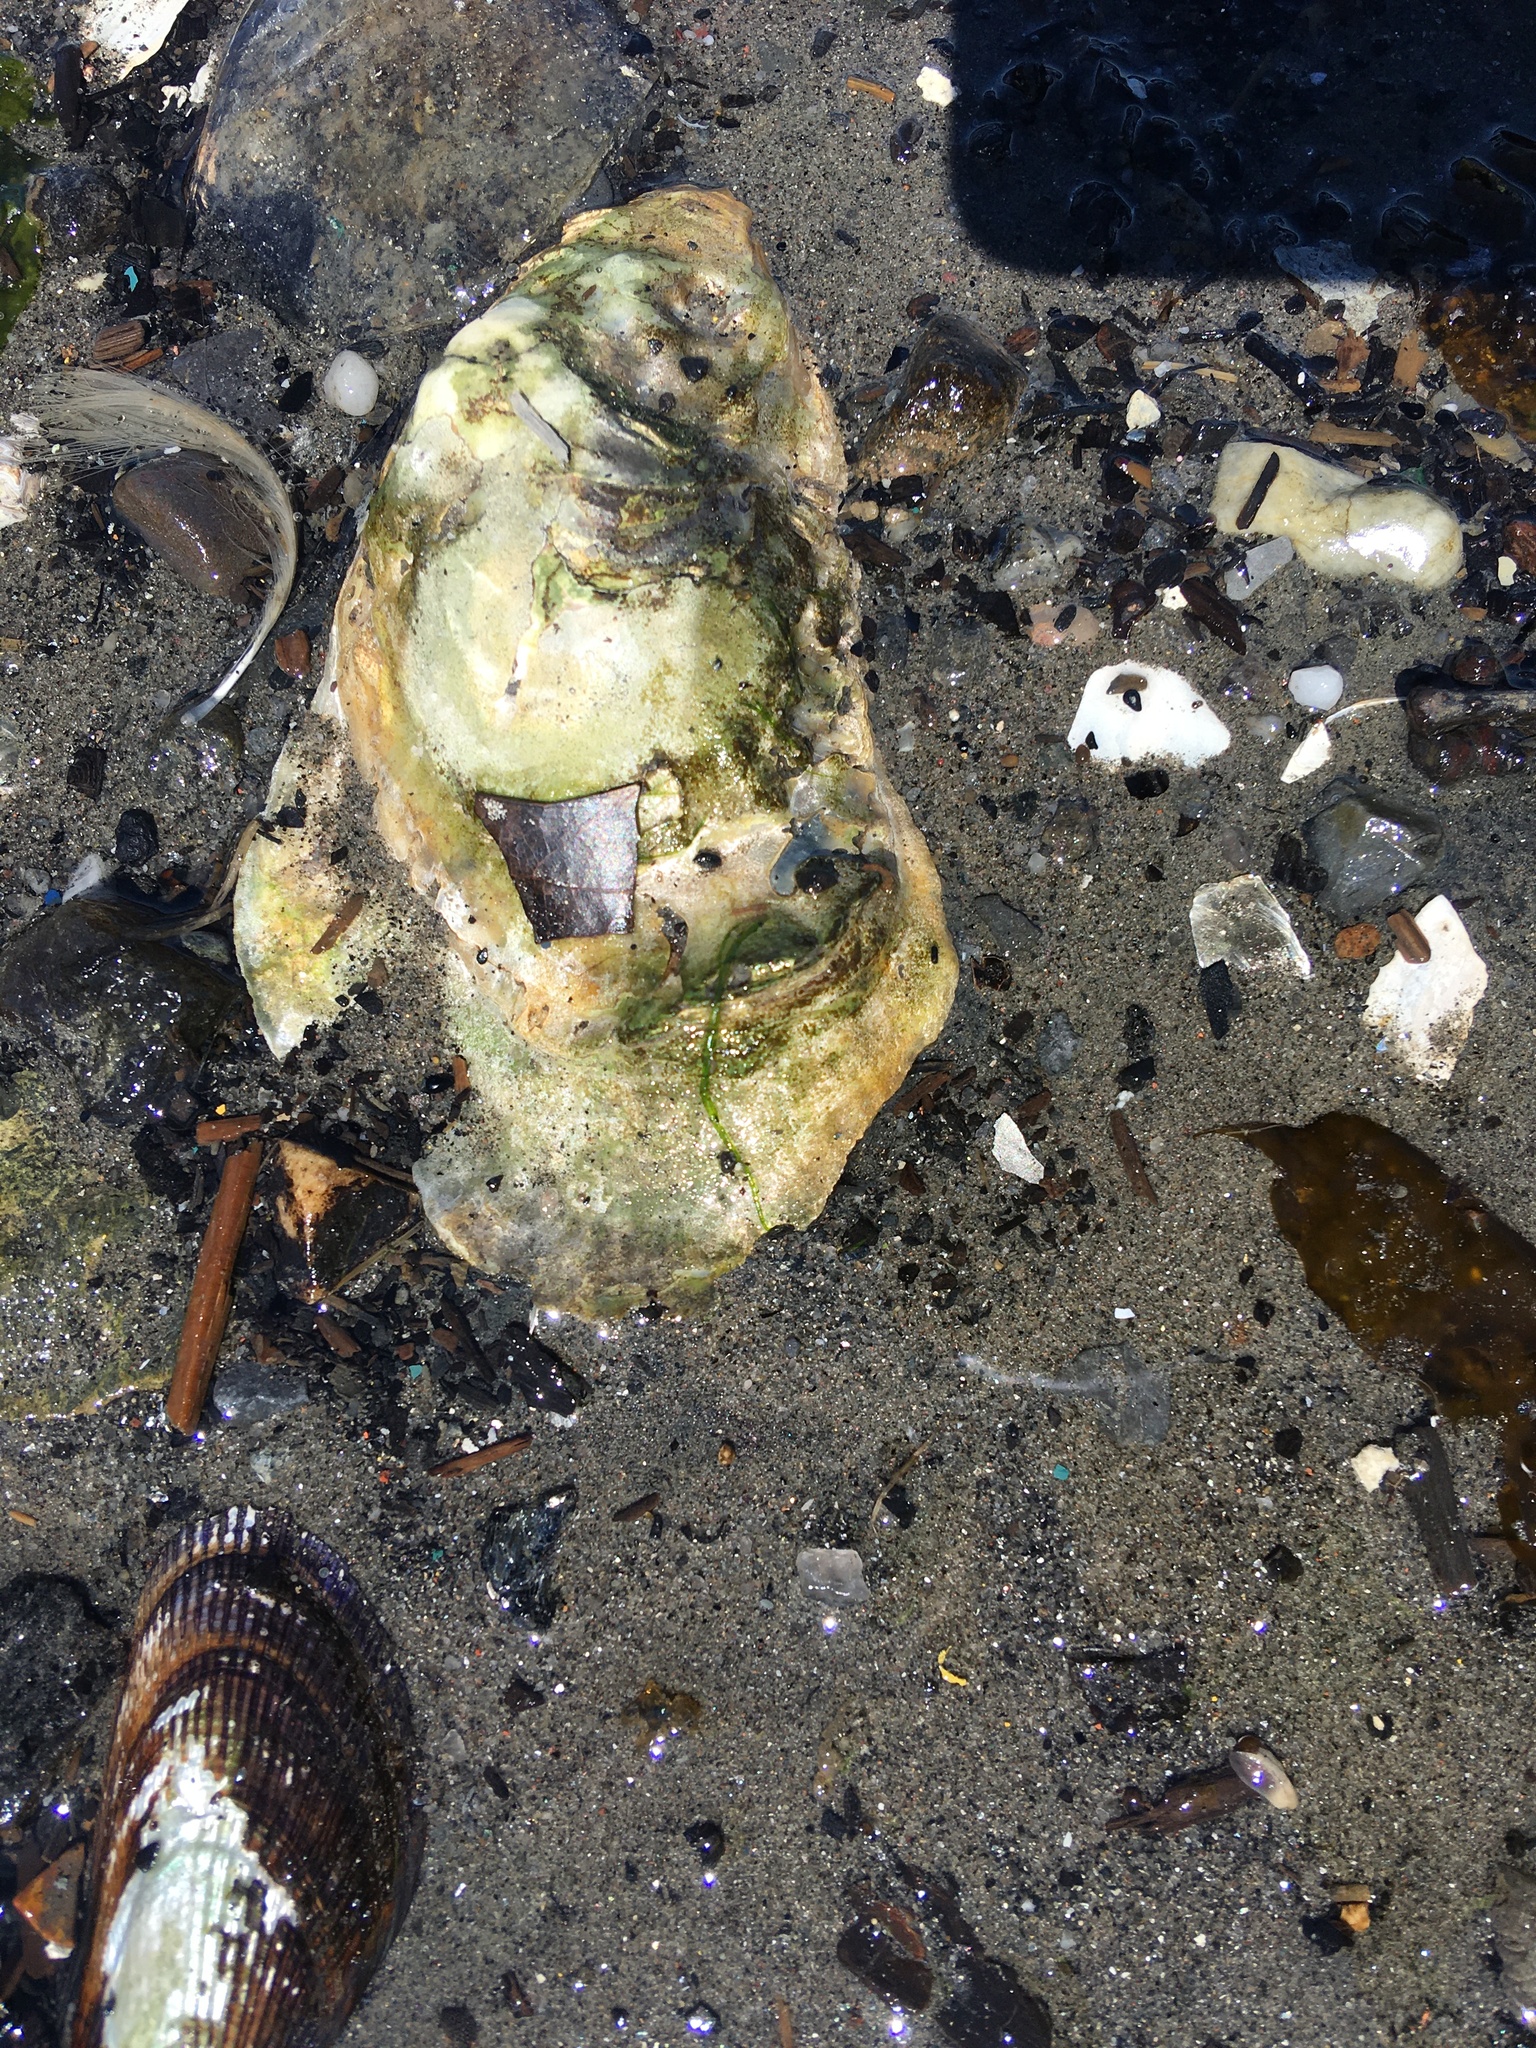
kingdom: Animalia
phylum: Mollusca
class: Bivalvia
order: Ostreida
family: Ostreidae
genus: Crassostrea
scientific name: Crassostrea virginica
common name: American oyster
